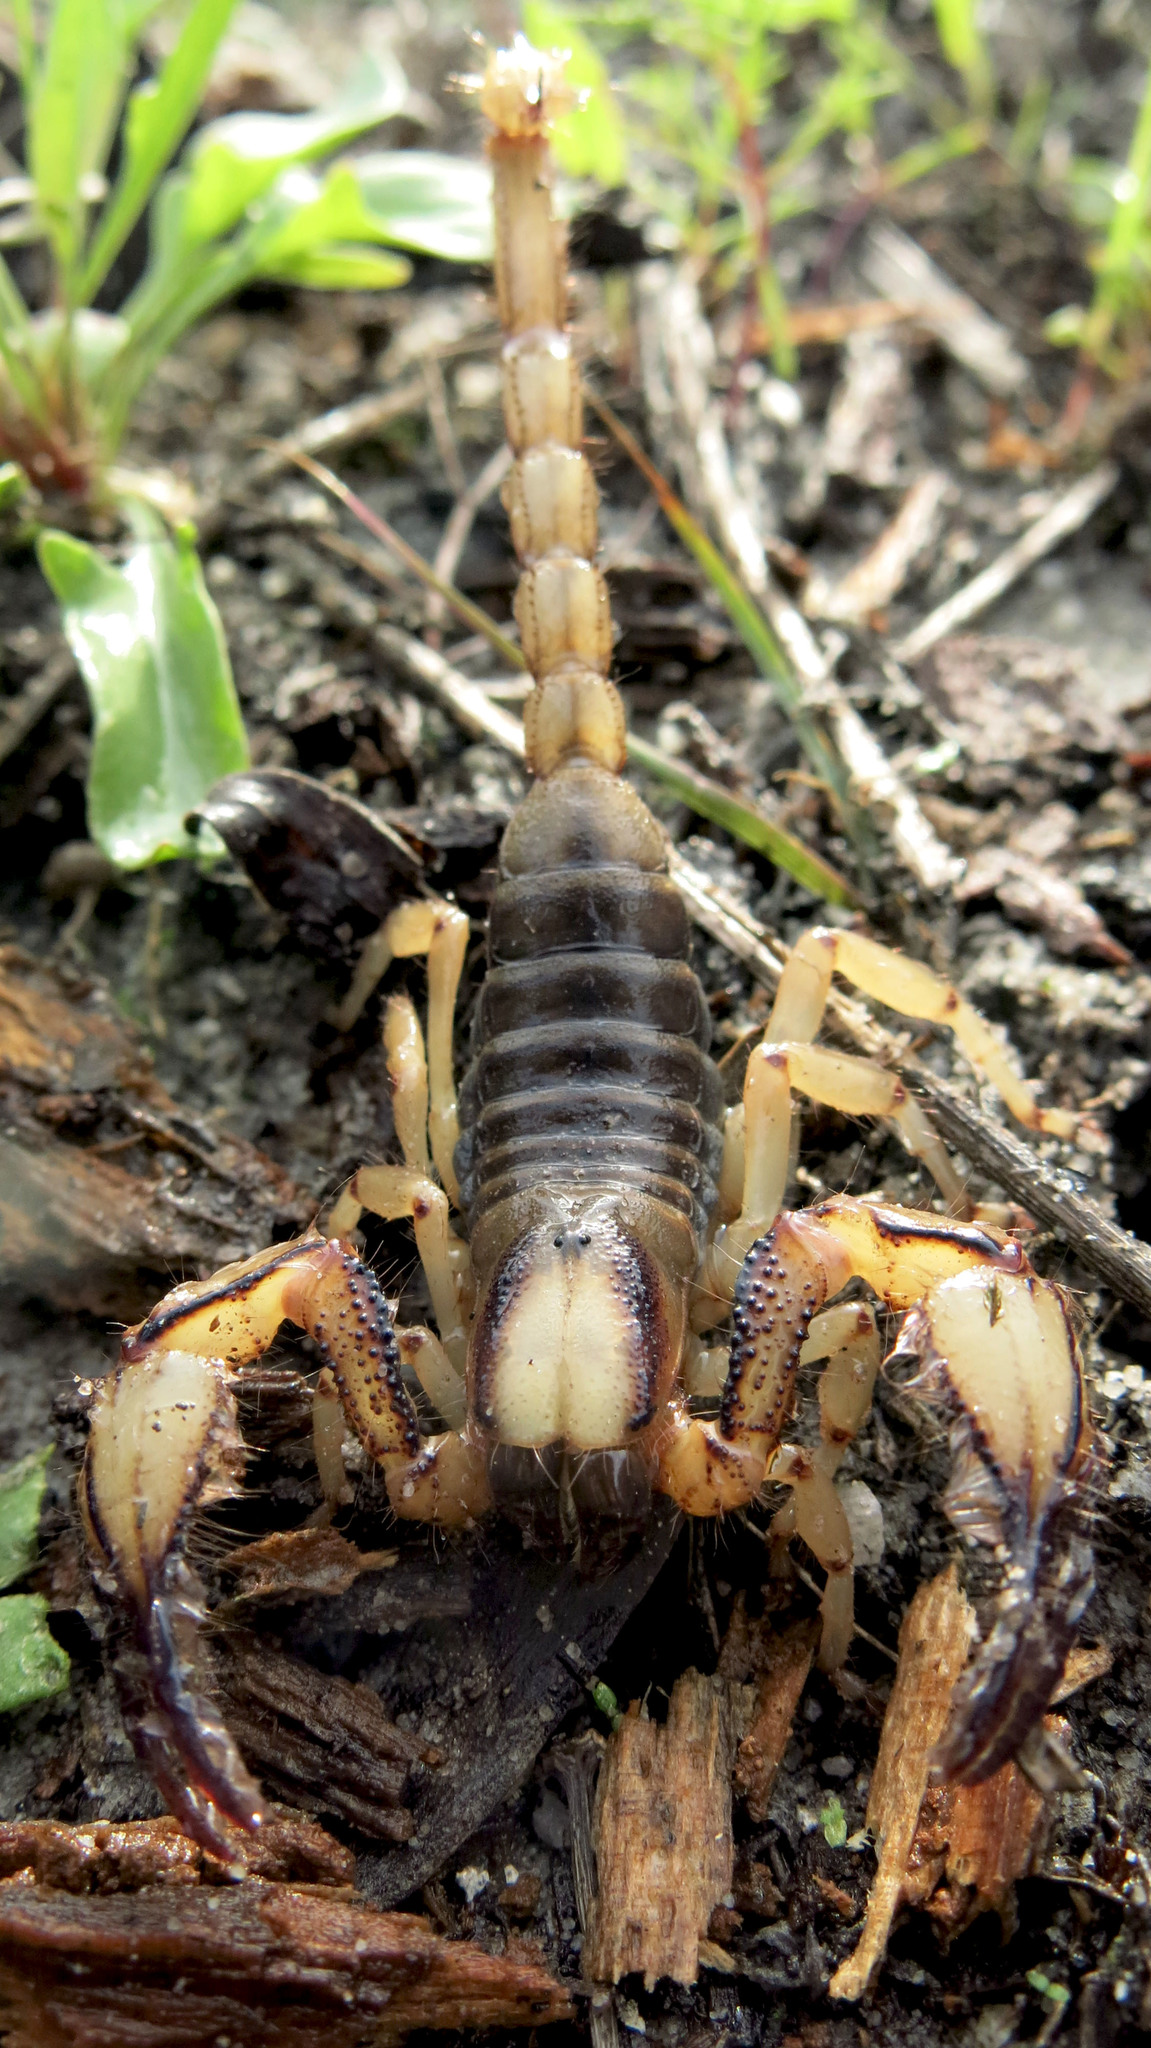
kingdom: Animalia
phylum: Arthropoda
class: Arachnida
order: Scorpiones
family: Scorpionidae
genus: Opistophthalmus
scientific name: Opistophthalmus capensis
